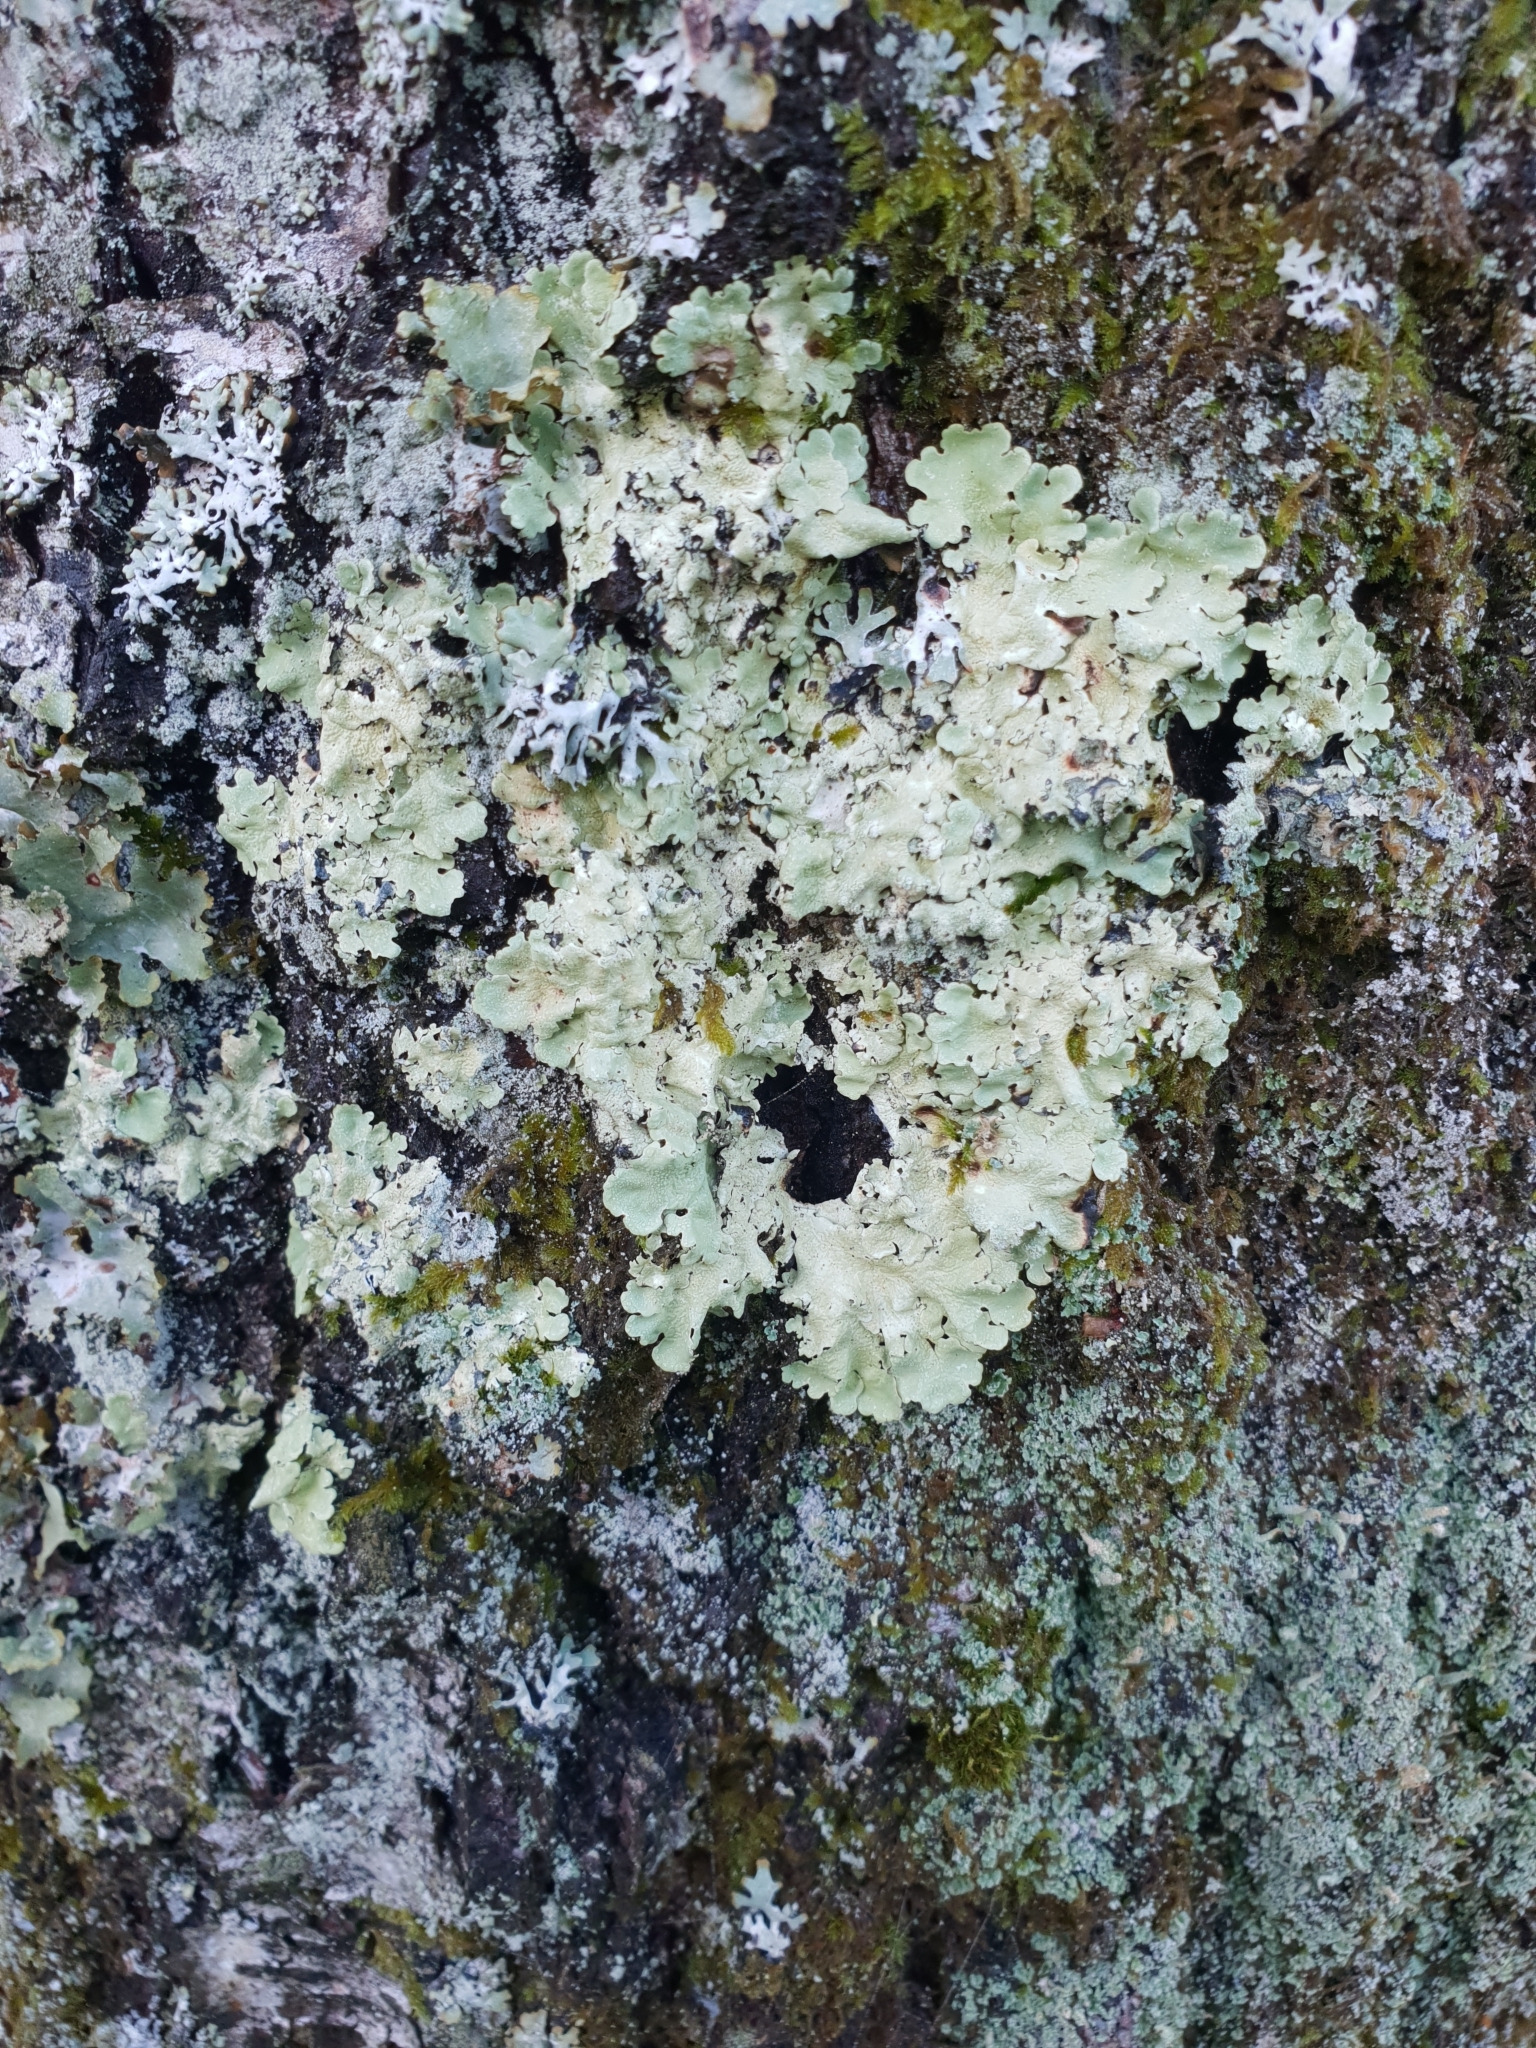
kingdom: Fungi
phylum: Ascomycota
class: Lecanoromycetes
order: Lecanorales
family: Parmeliaceae
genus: Flavoparmelia
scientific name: Flavoparmelia caperata
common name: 40-mile per hour lichen
